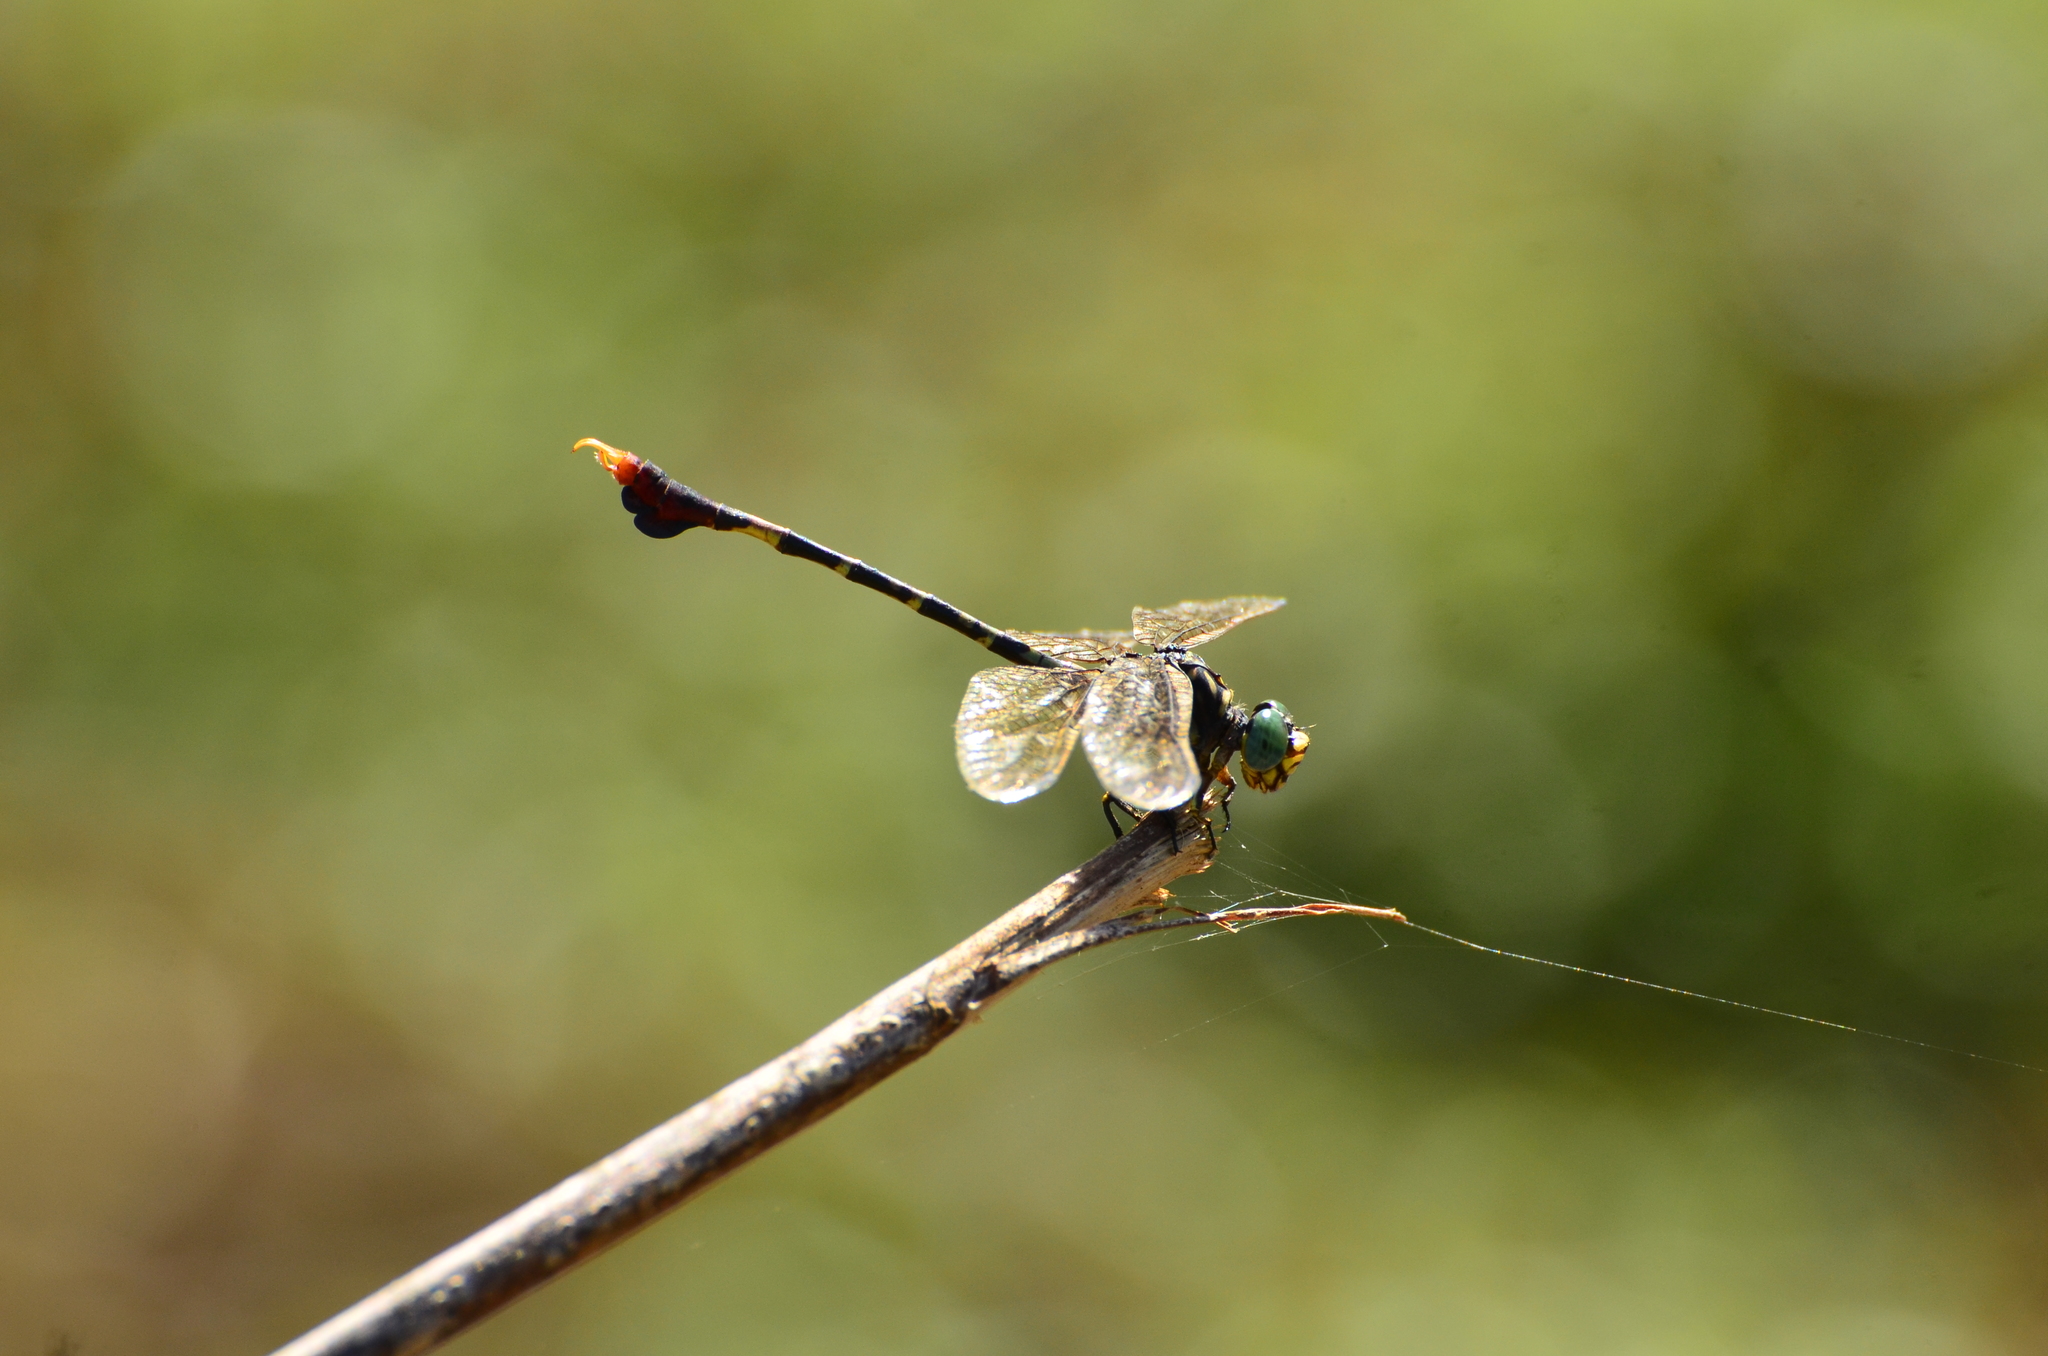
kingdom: Animalia
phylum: Arthropoda
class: Insecta
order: Odonata
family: Gomphidae
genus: Paragomphus
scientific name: Paragomphus sabicus
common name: Flapper hooktail
